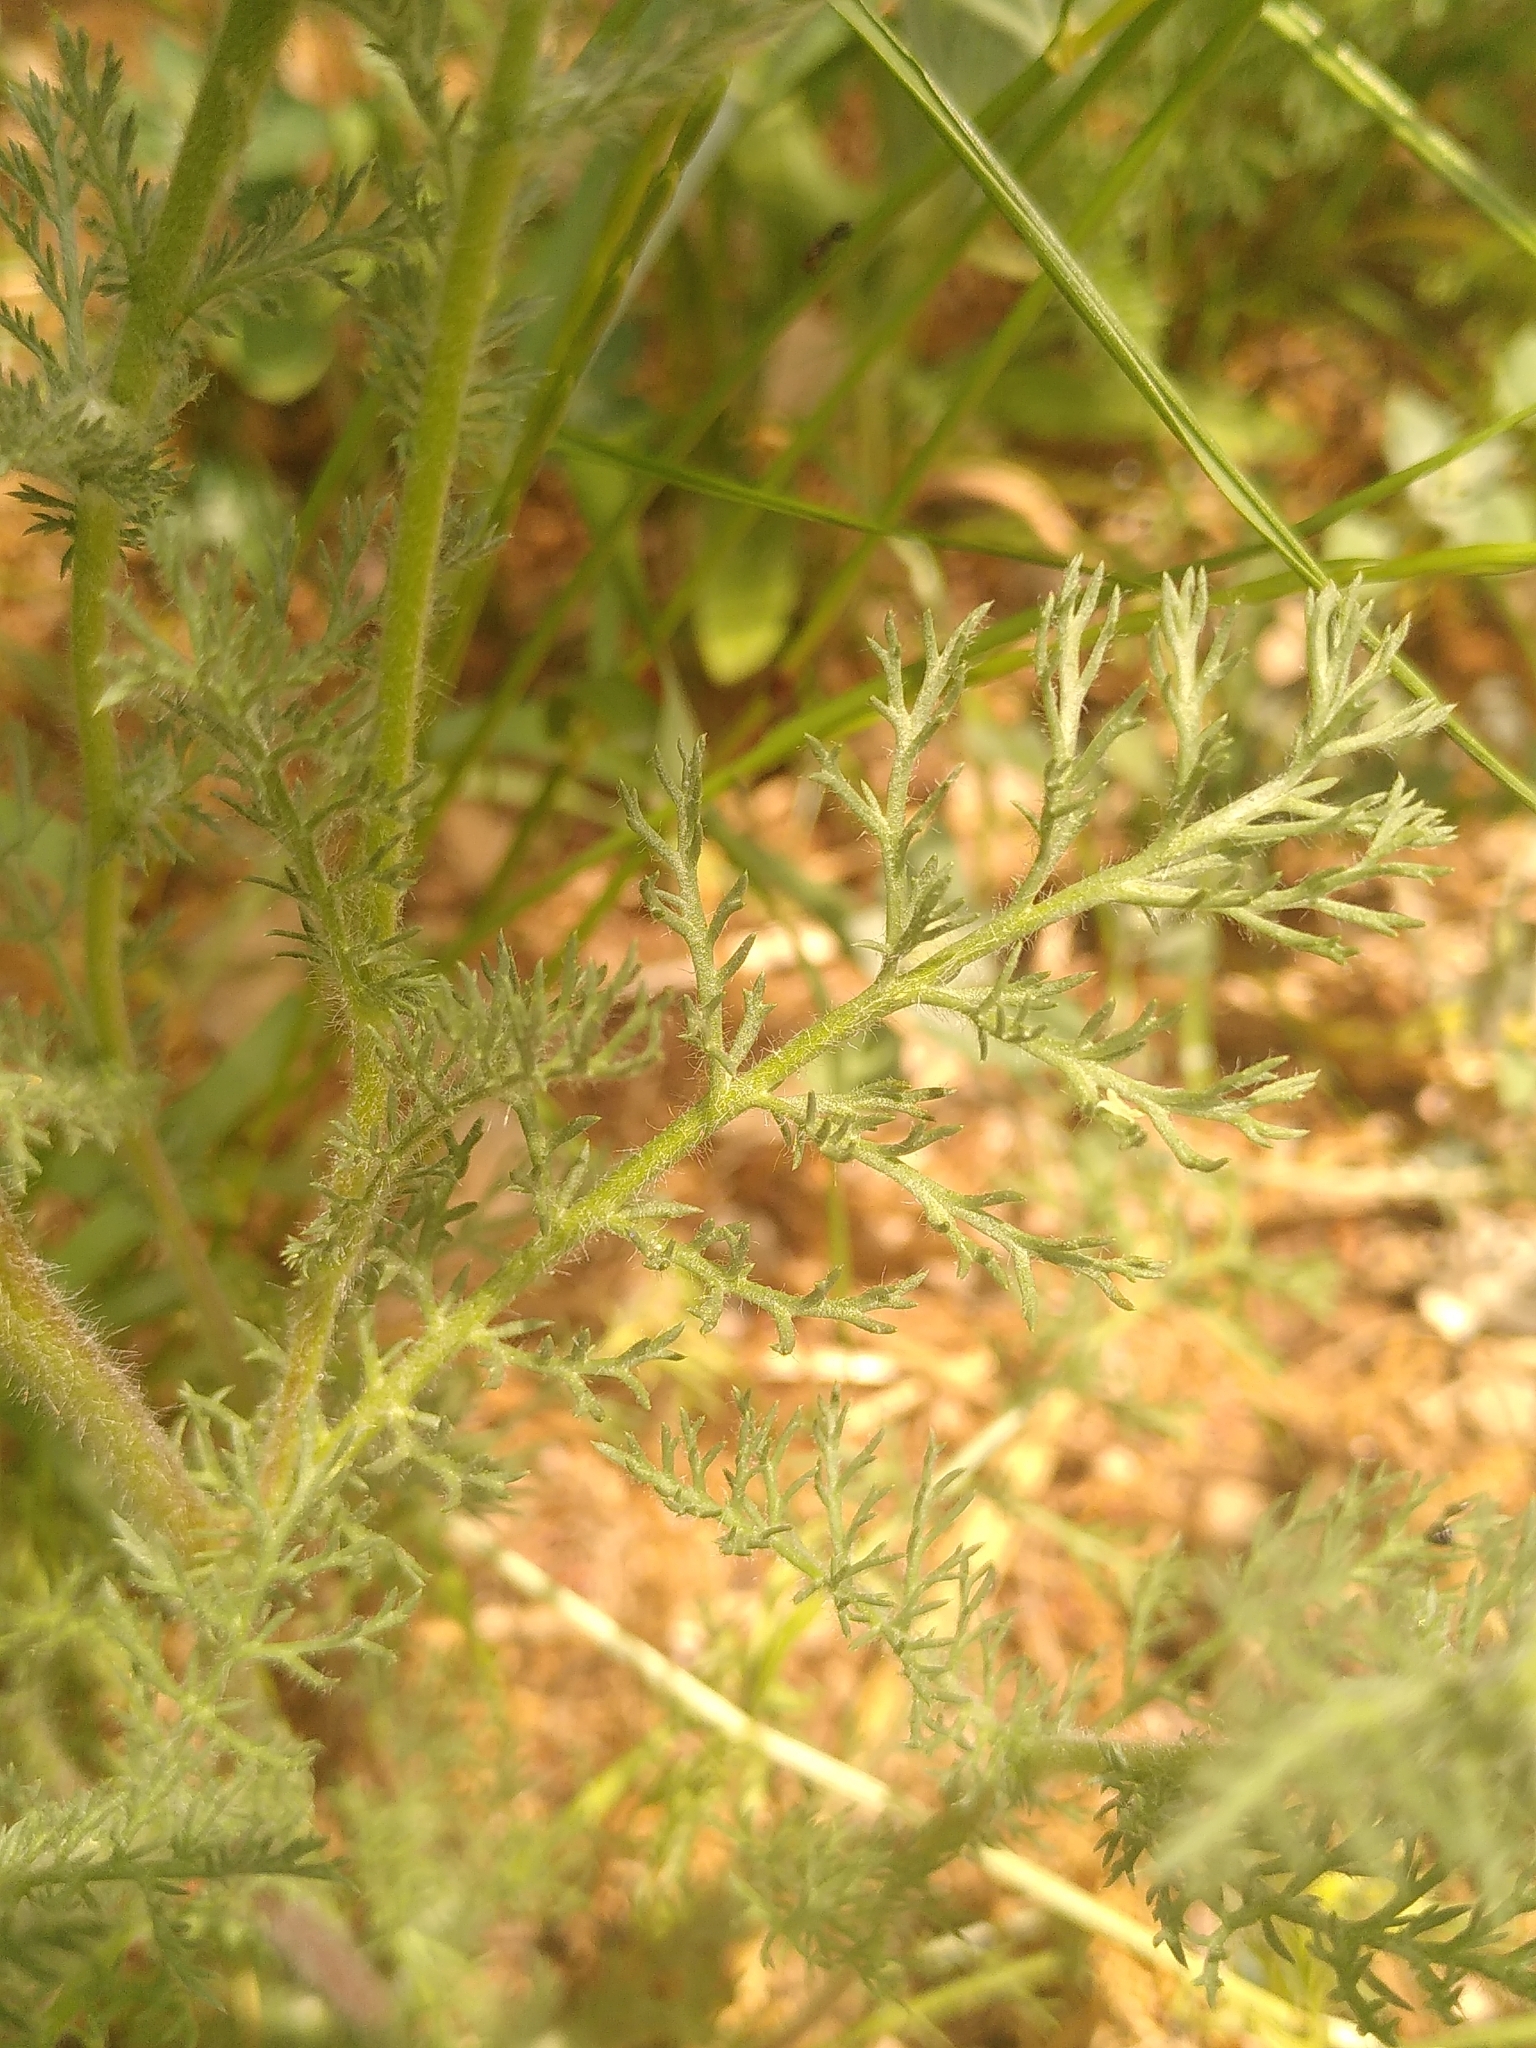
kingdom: Plantae
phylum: Tracheophyta
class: Magnoliopsida
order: Asterales
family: Asteraceae
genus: Anacyclus
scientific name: Anacyclus clavatus
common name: Whitebuttons
